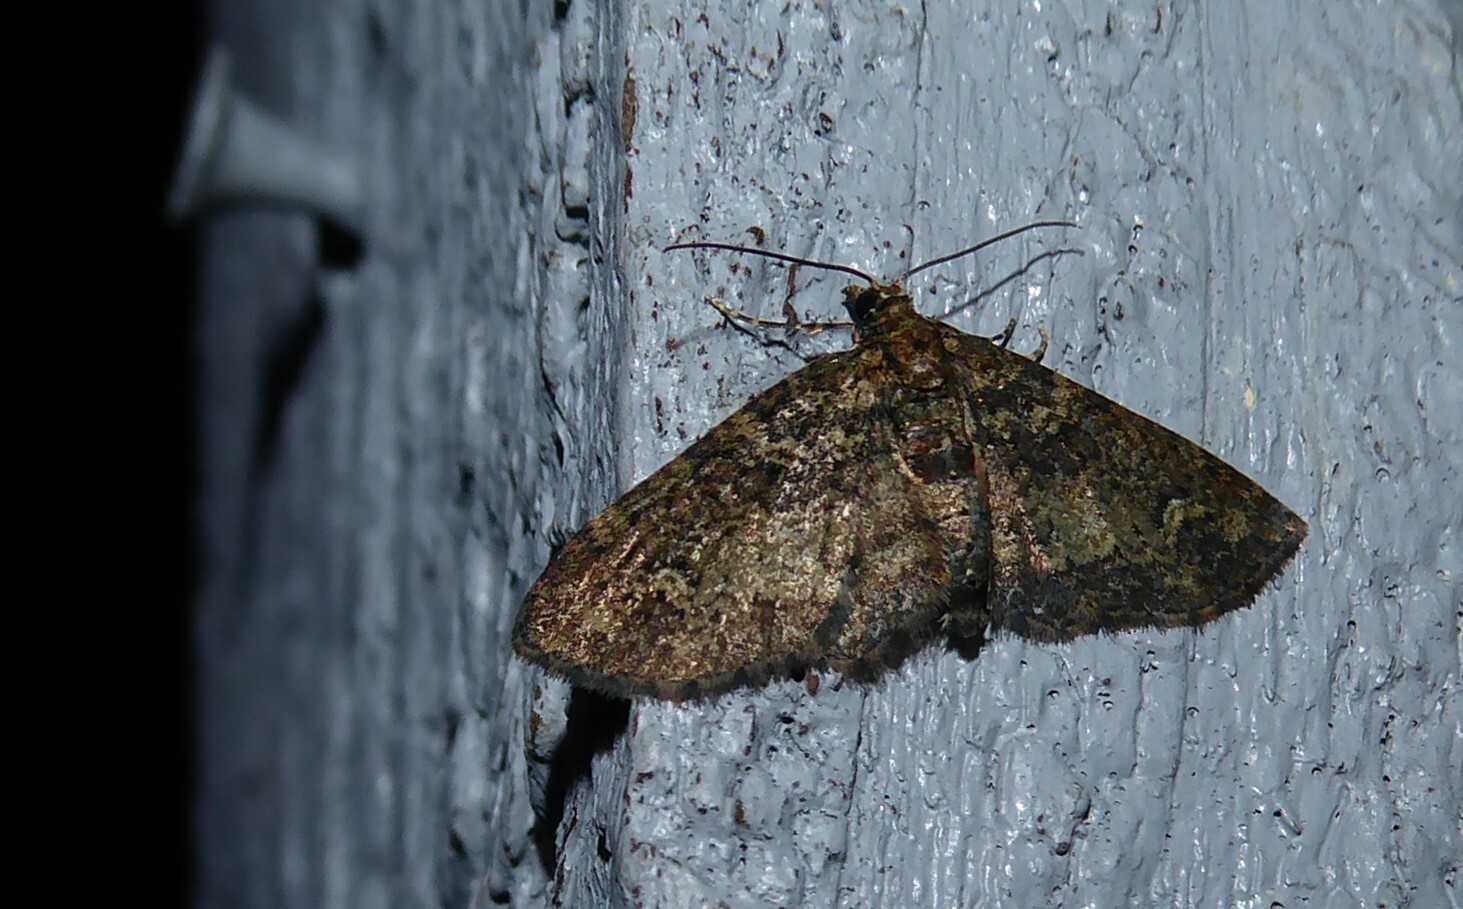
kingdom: Animalia
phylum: Arthropoda
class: Insecta
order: Lepidoptera
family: Geometridae
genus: Pasiphilodes
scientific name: Pasiphilodes testulata
